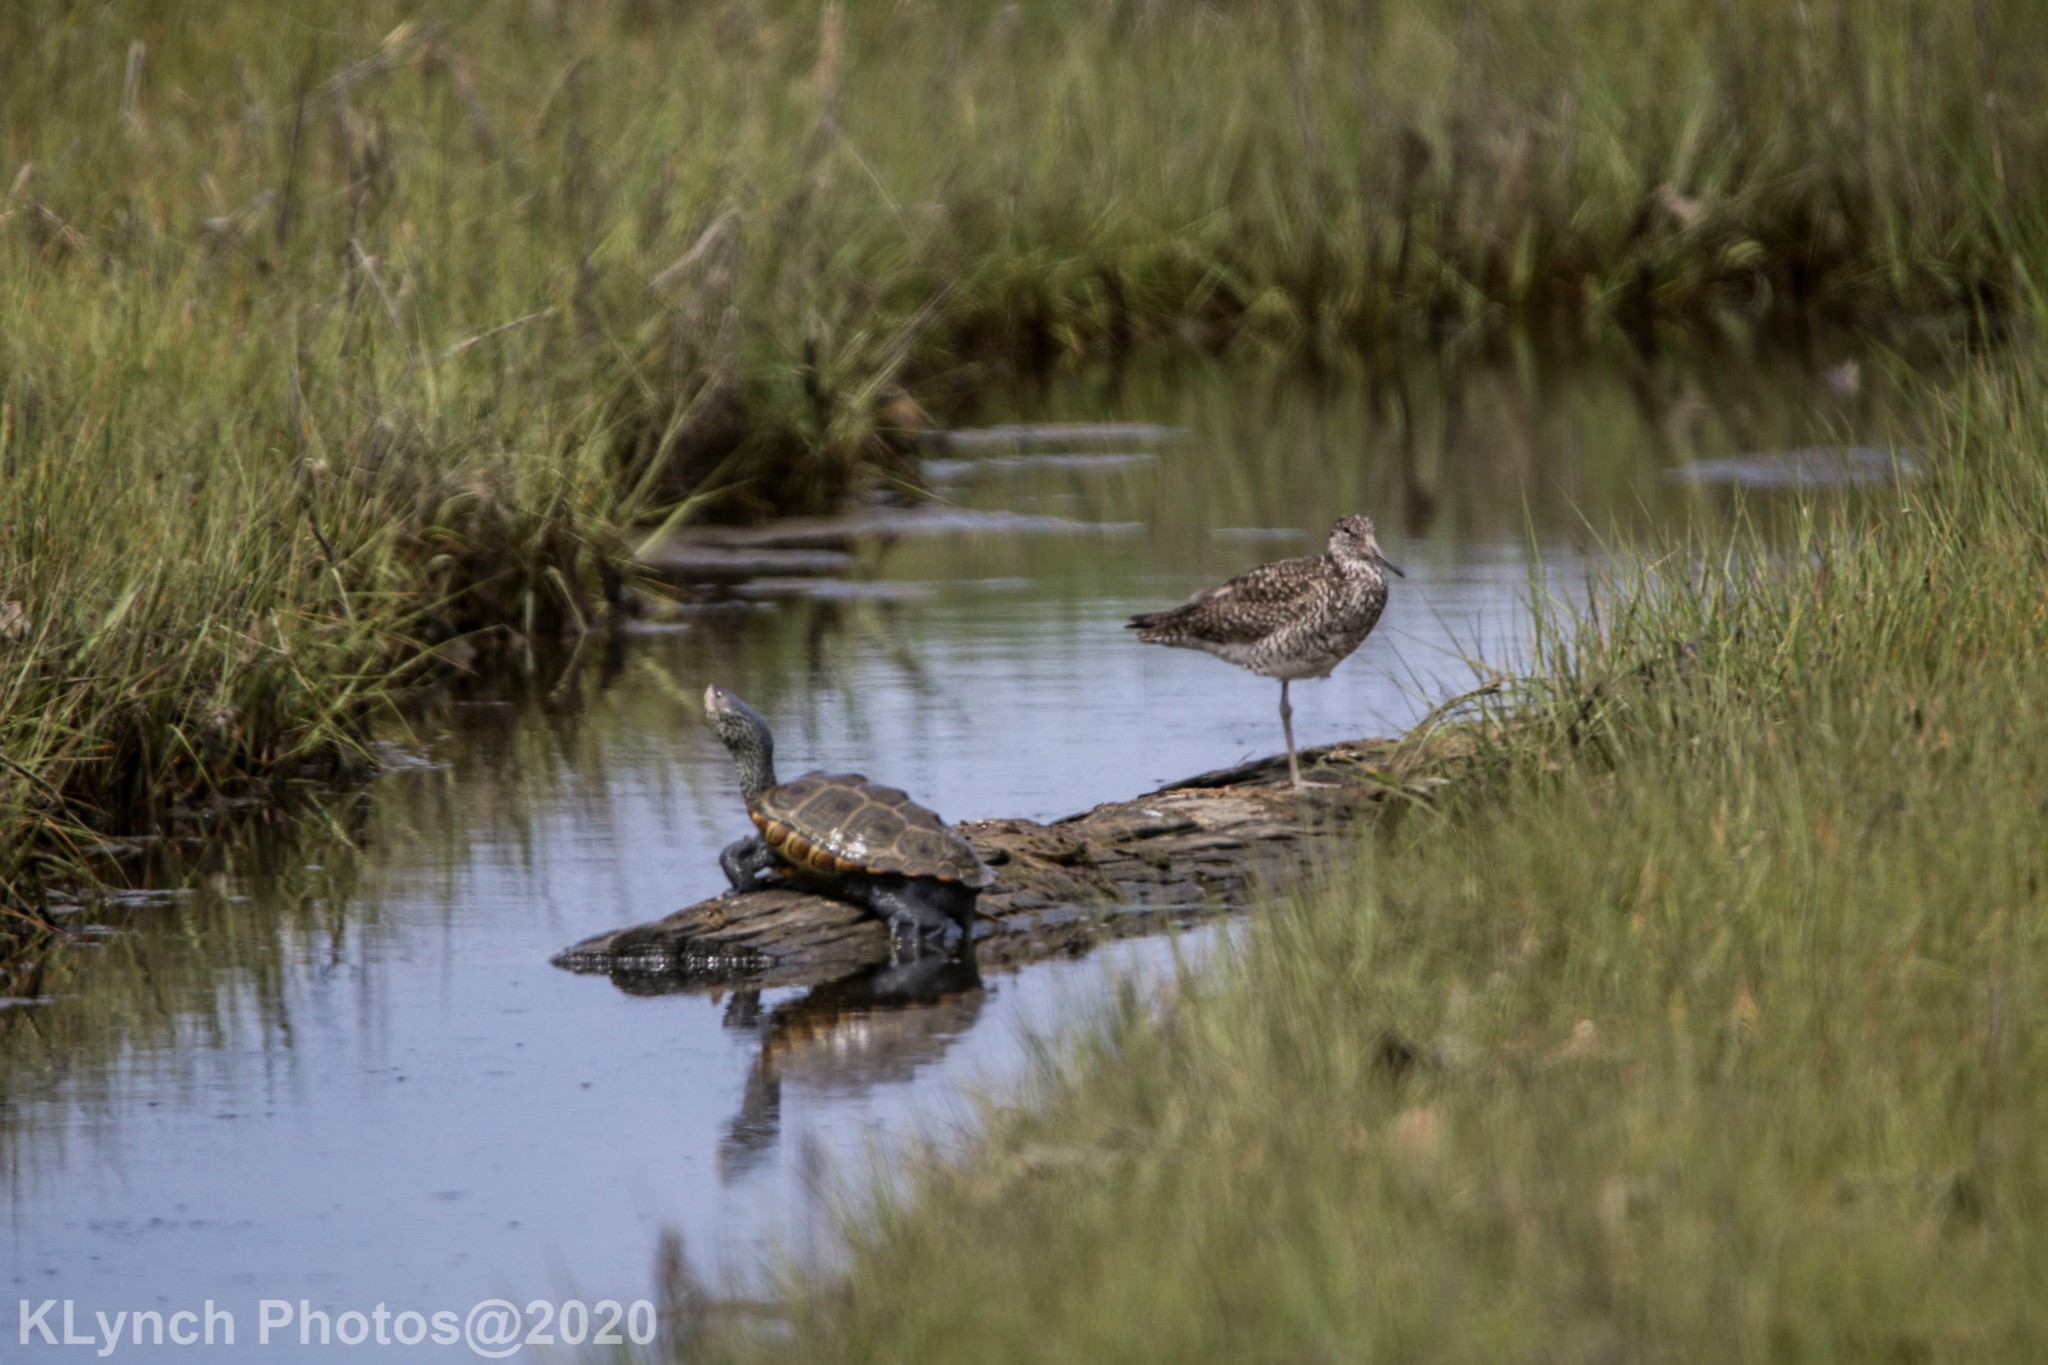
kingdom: Animalia
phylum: Chordata
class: Testudines
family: Emydidae
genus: Malaclemys
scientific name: Malaclemys terrapin
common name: Diamondback terrapin
